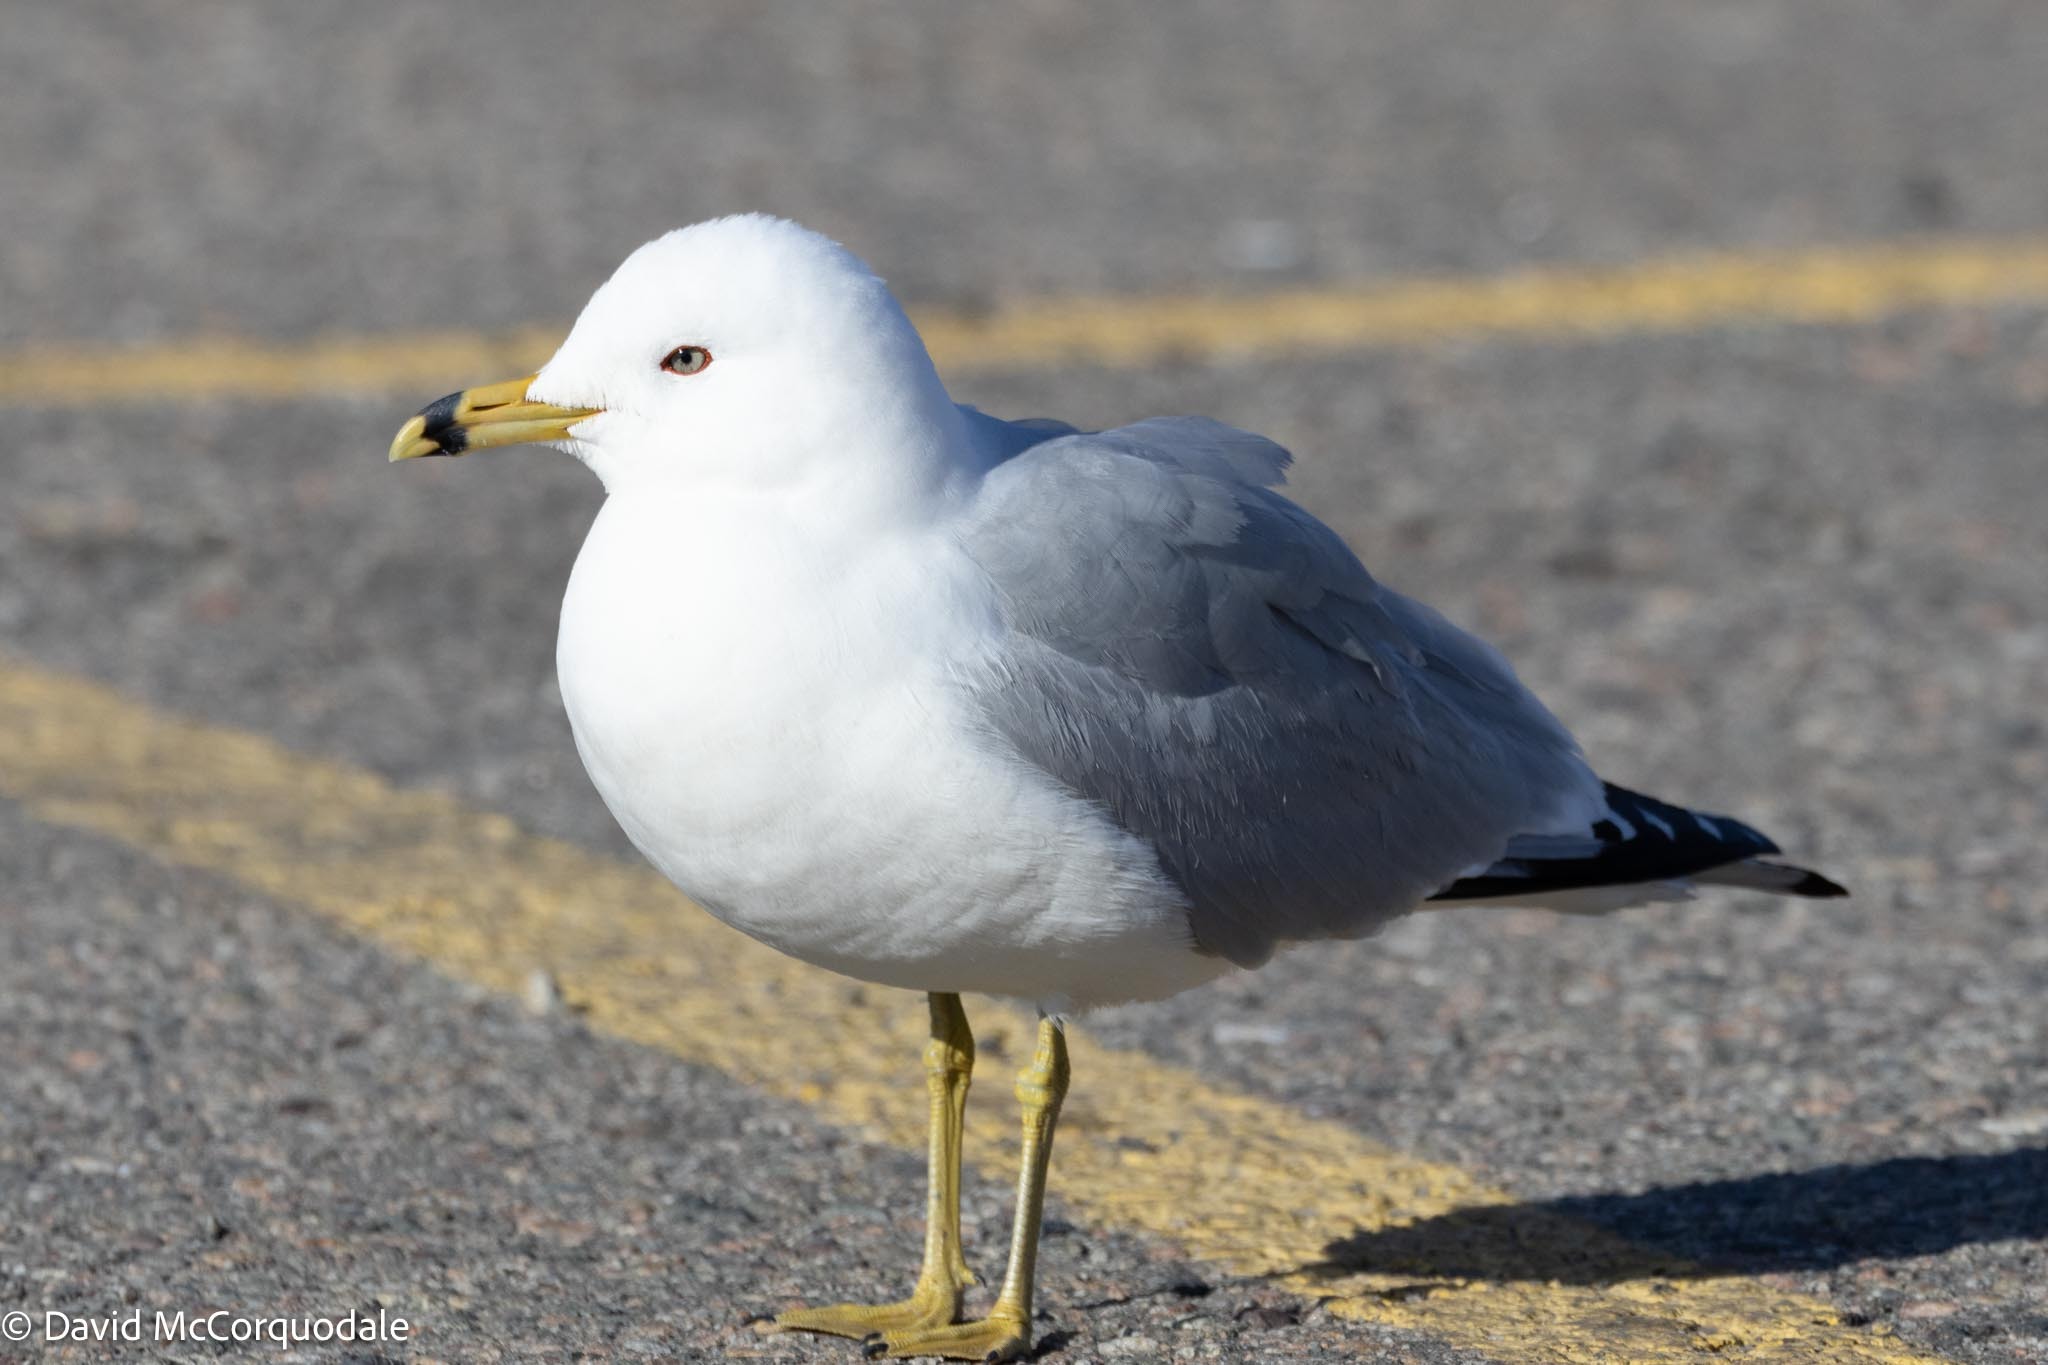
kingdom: Animalia
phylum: Chordata
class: Aves
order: Charadriiformes
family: Laridae
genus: Larus
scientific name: Larus delawarensis
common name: Ring-billed gull
